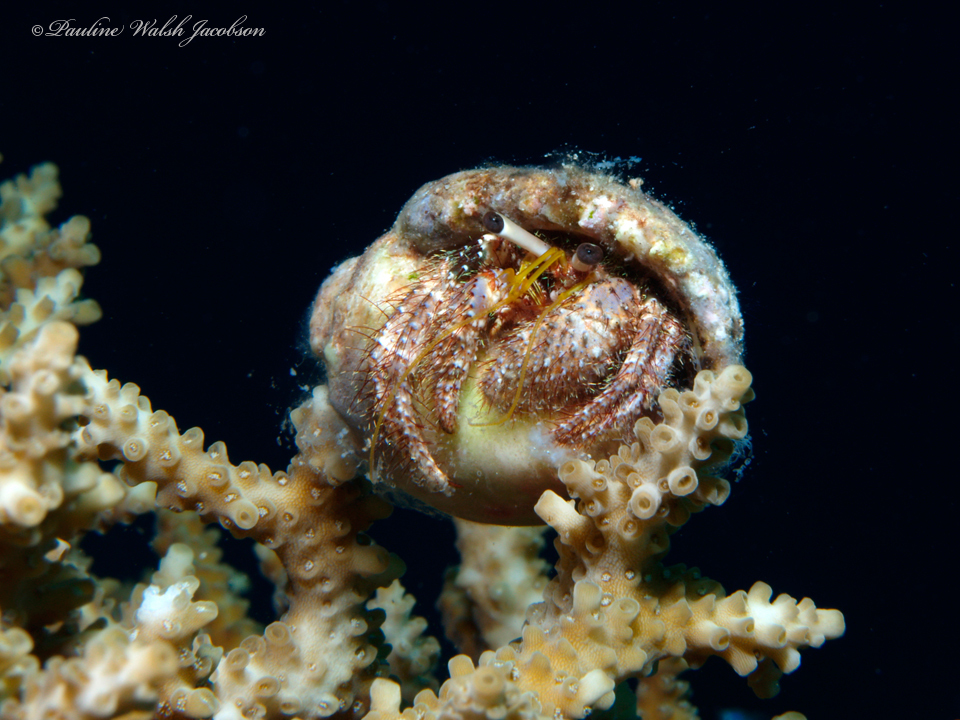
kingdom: Animalia
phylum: Arthropoda
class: Malacostraca
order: Decapoda
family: Diogenidae
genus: Dardanus
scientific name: Dardanus lagopodes
